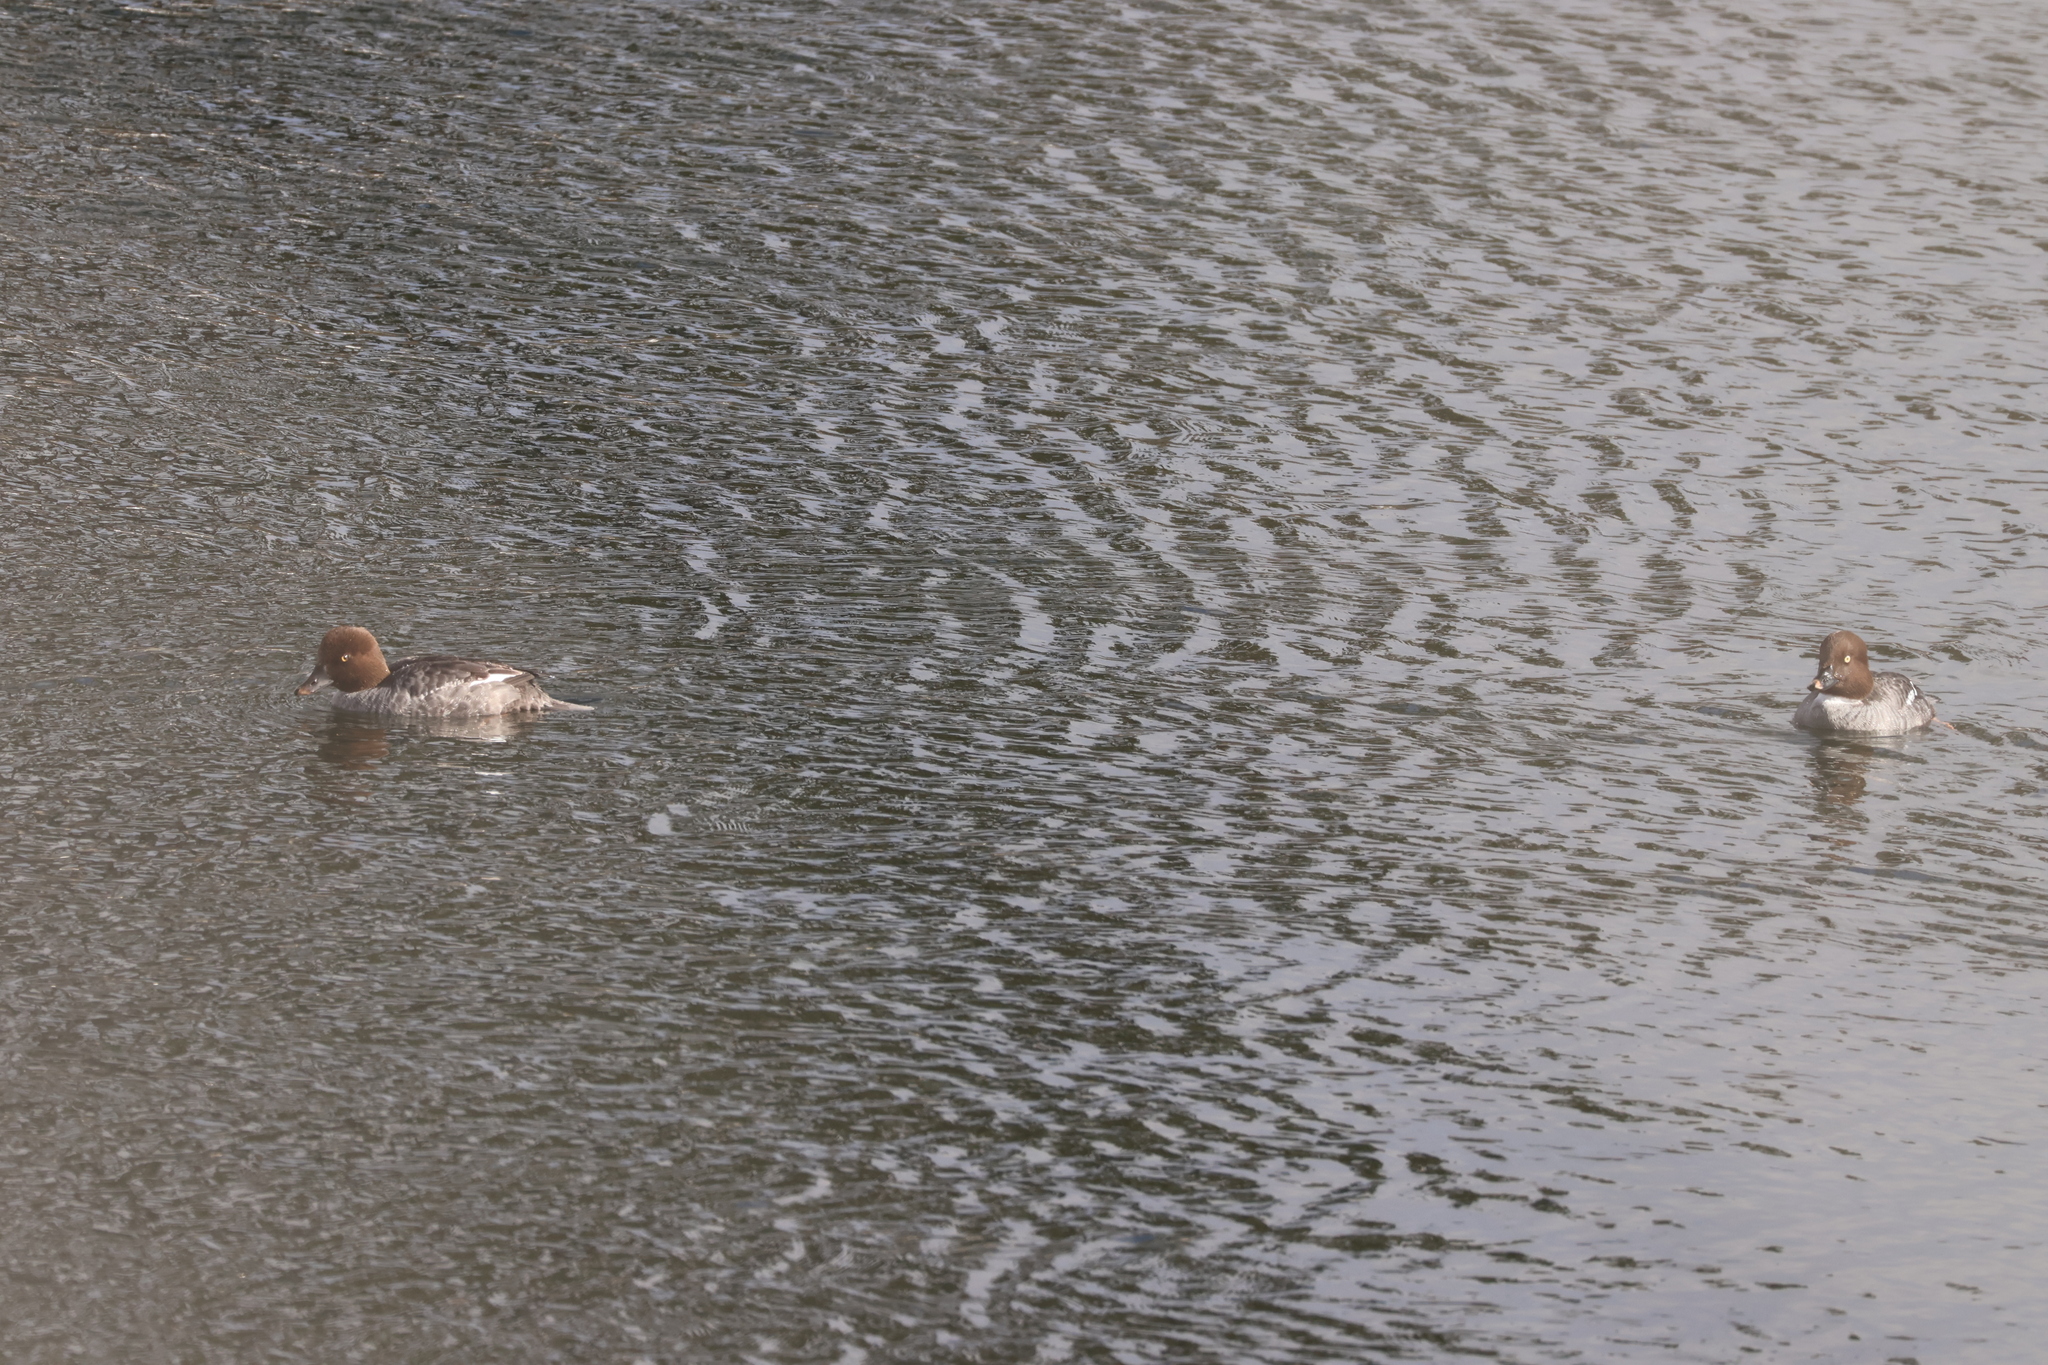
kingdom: Animalia
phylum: Chordata
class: Aves
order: Anseriformes
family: Anatidae
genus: Bucephala
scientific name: Bucephala clangula
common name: Common goldeneye
